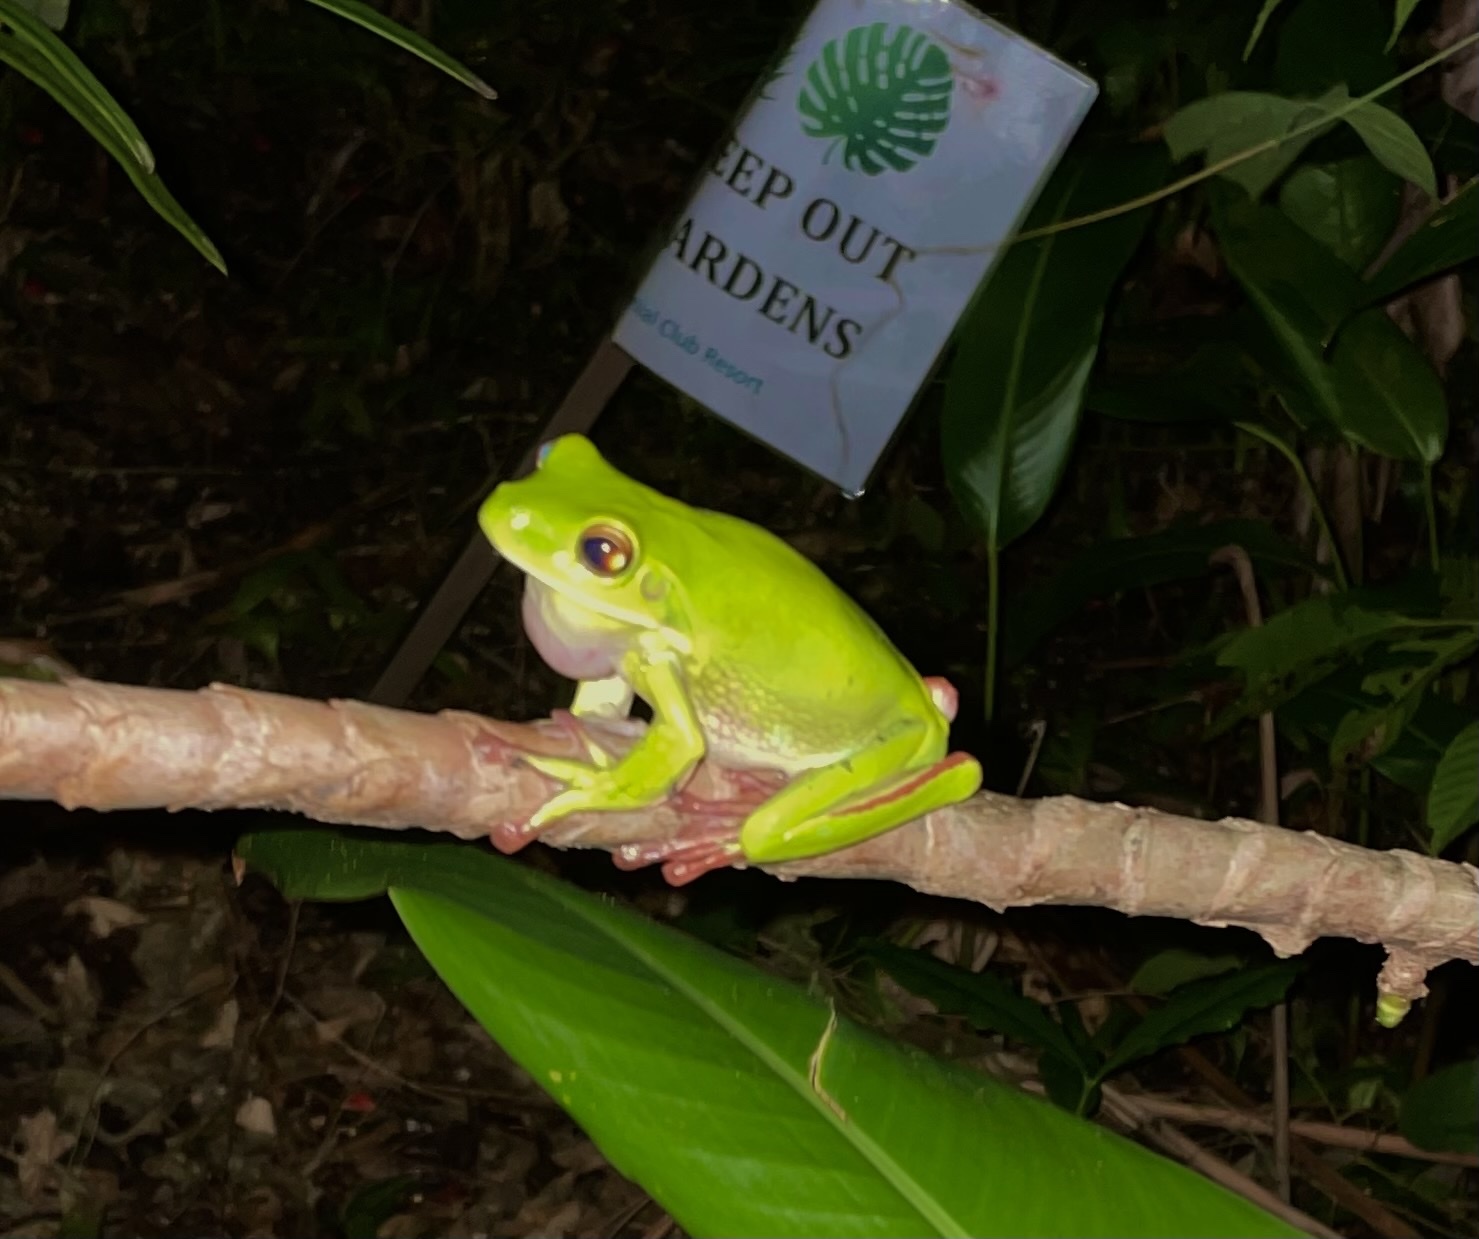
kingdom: Animalia
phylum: Chordata
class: Amphibia
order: Anura
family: Pelodryadidae
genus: Nyctimystes
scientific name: Nyctimystes infrafrenatus
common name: Australian giant treefrog
